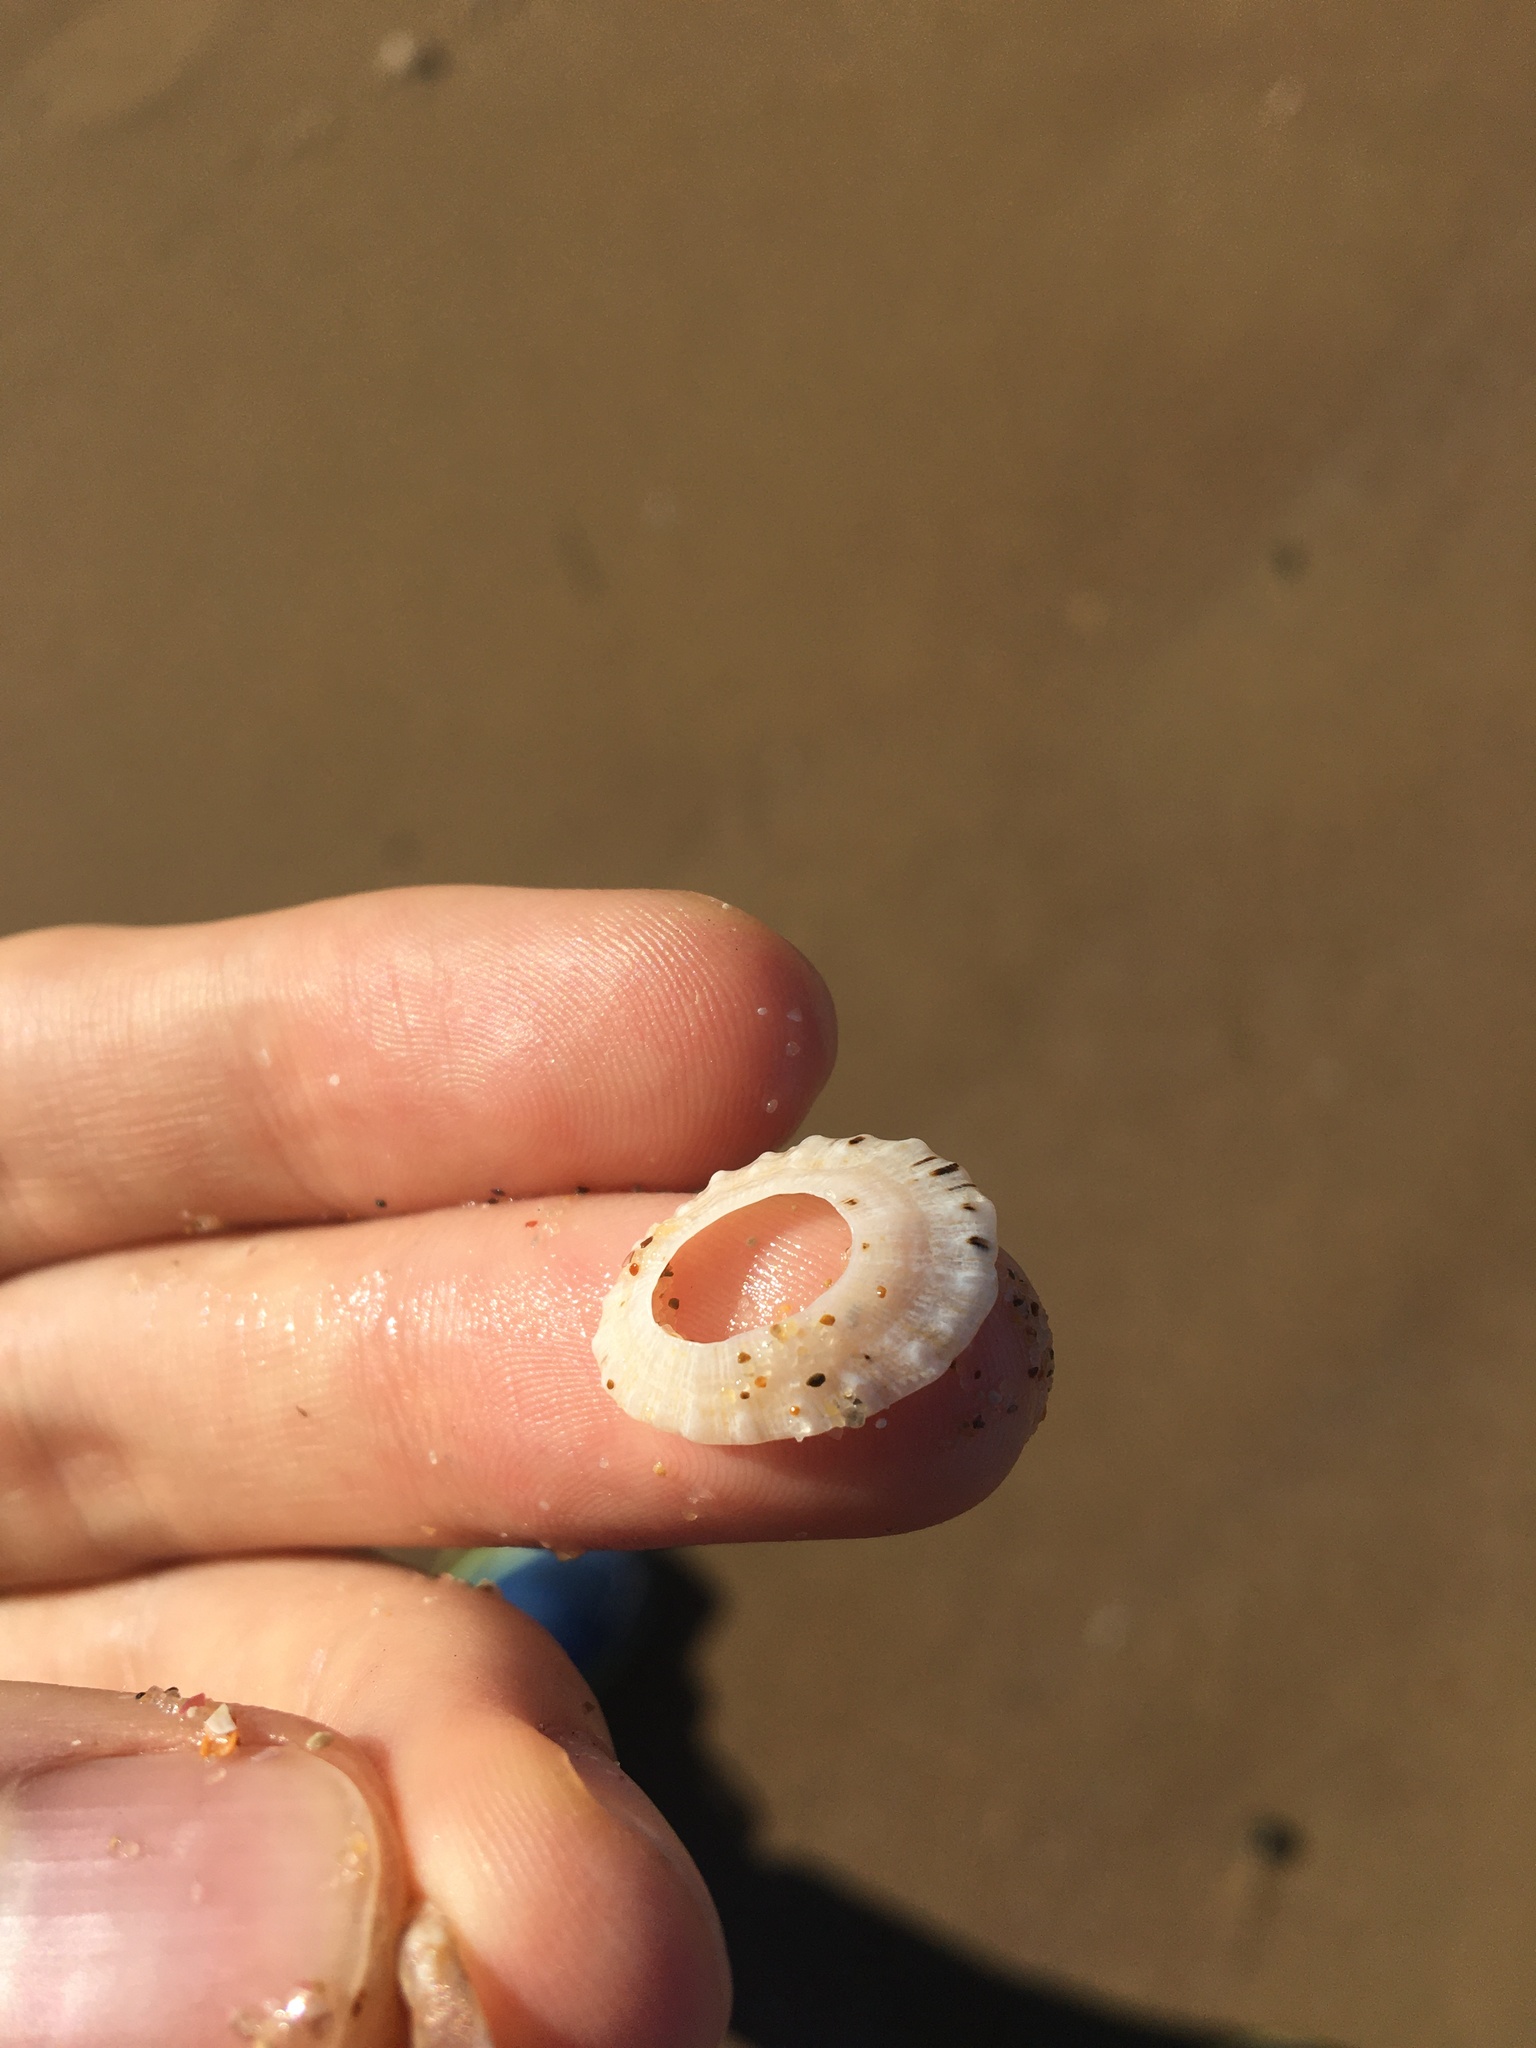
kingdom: Animalia
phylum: Mollusca
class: Gastropoda
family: Patellidae
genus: Scutellastra
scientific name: Scutellastra peronii
